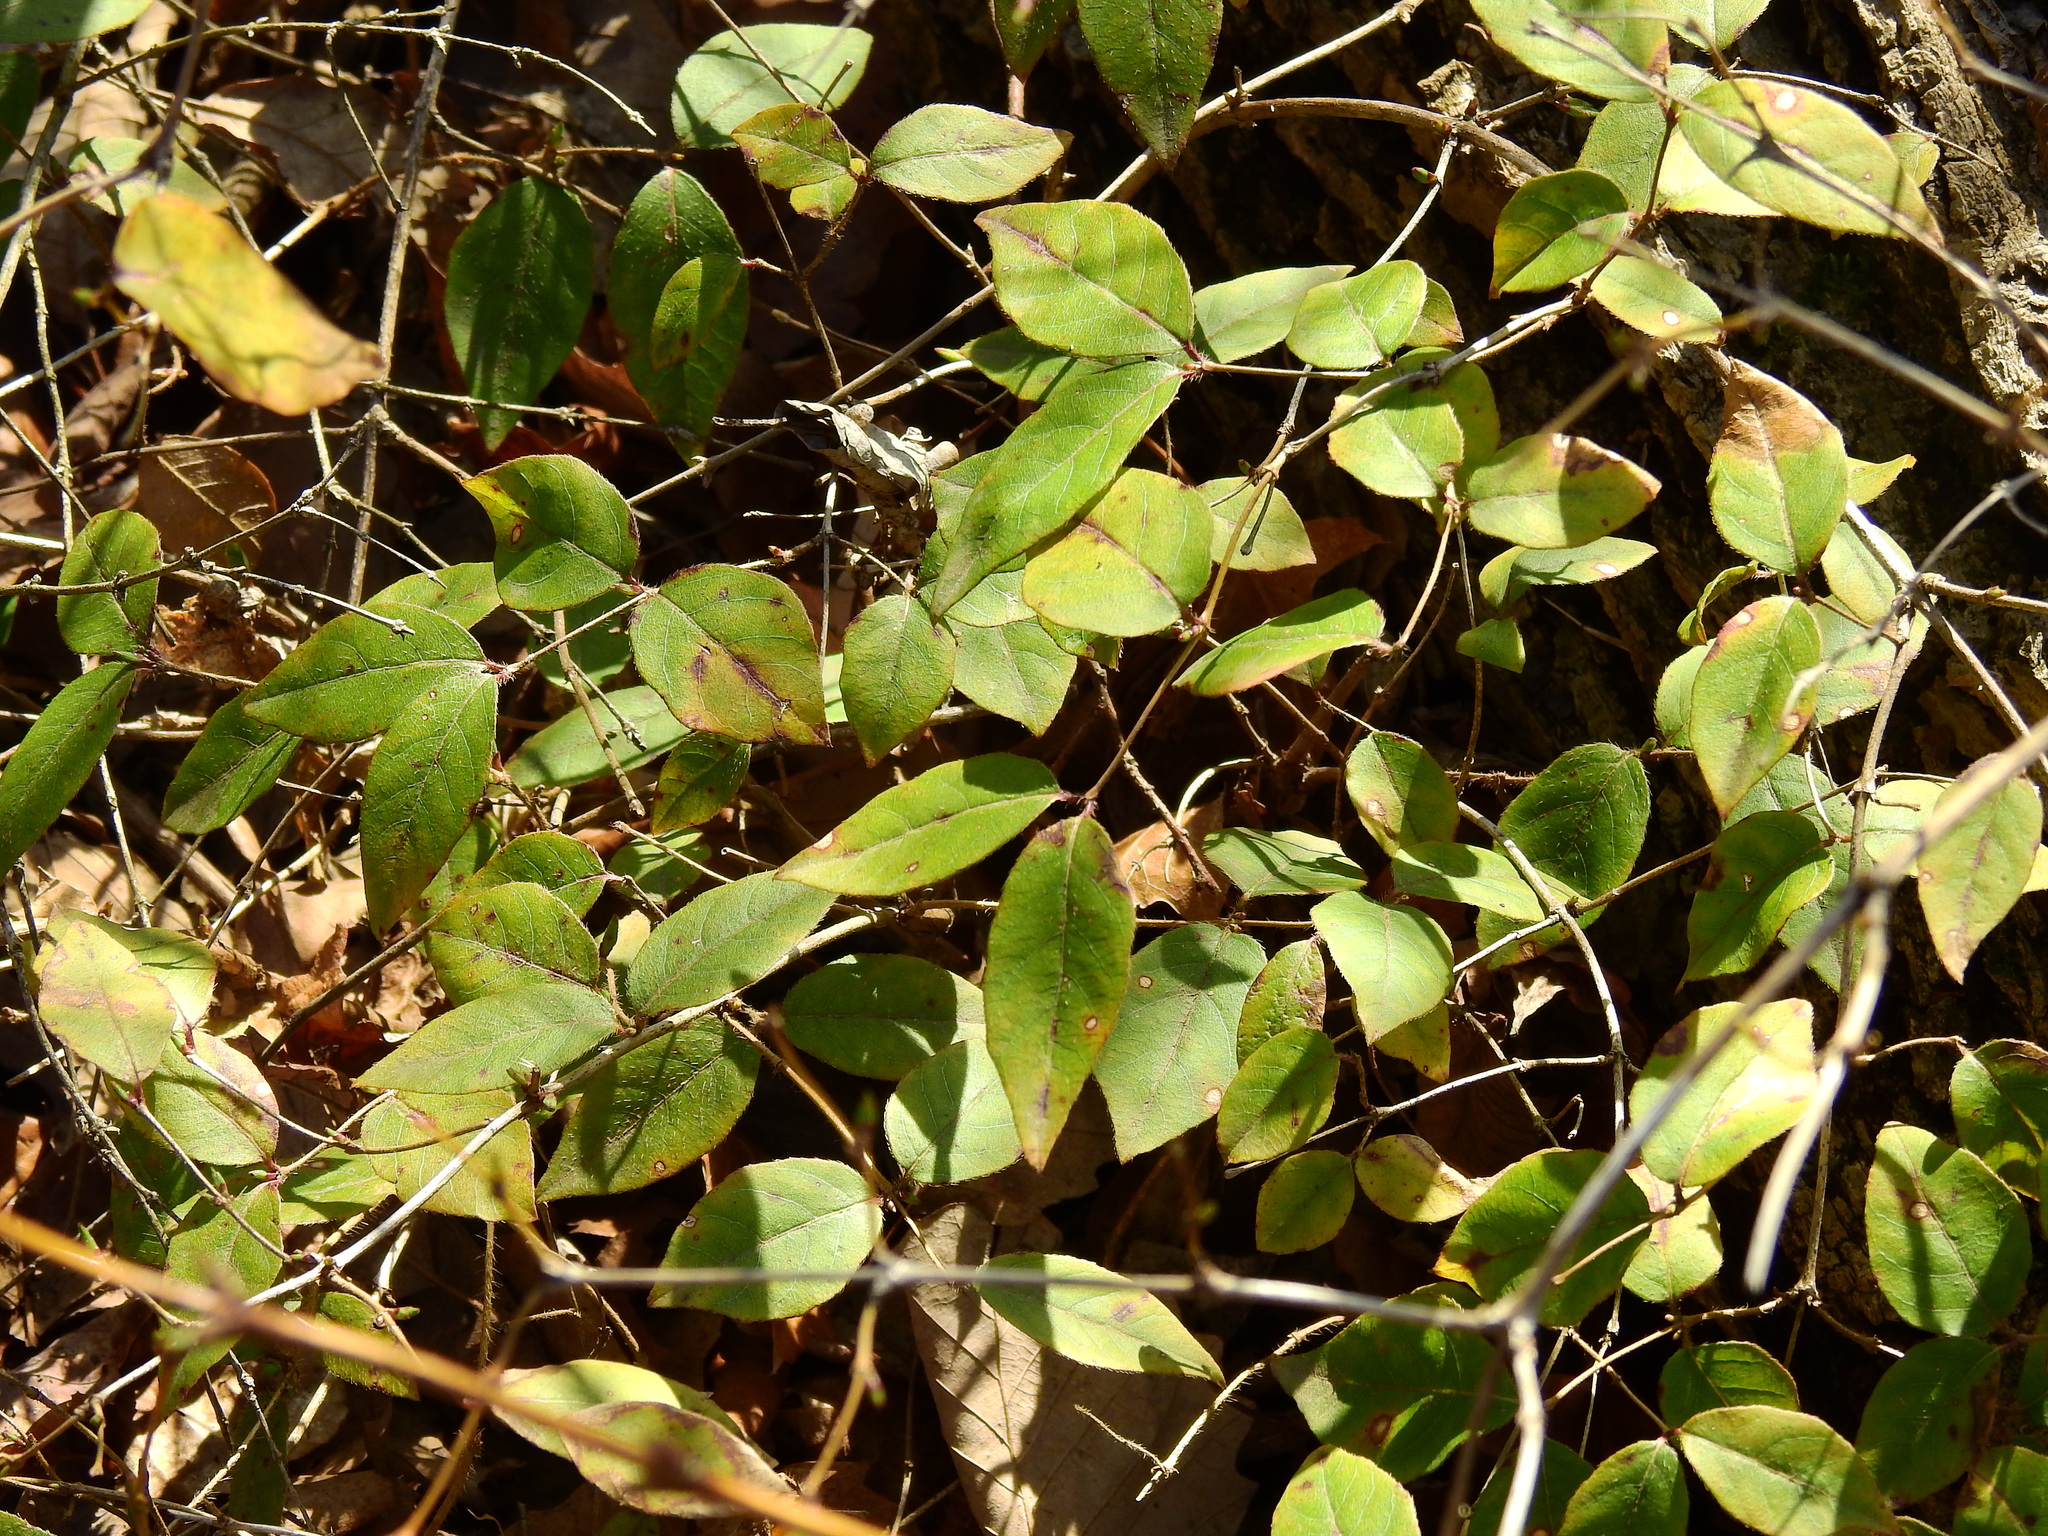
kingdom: Plantae
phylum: Tracheophyta
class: Magnoliopsida
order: Dipsacales
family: Caprifoliaceae
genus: Lonicera
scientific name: Lonicera fragrantissima
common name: Fragrant honeysuckle
